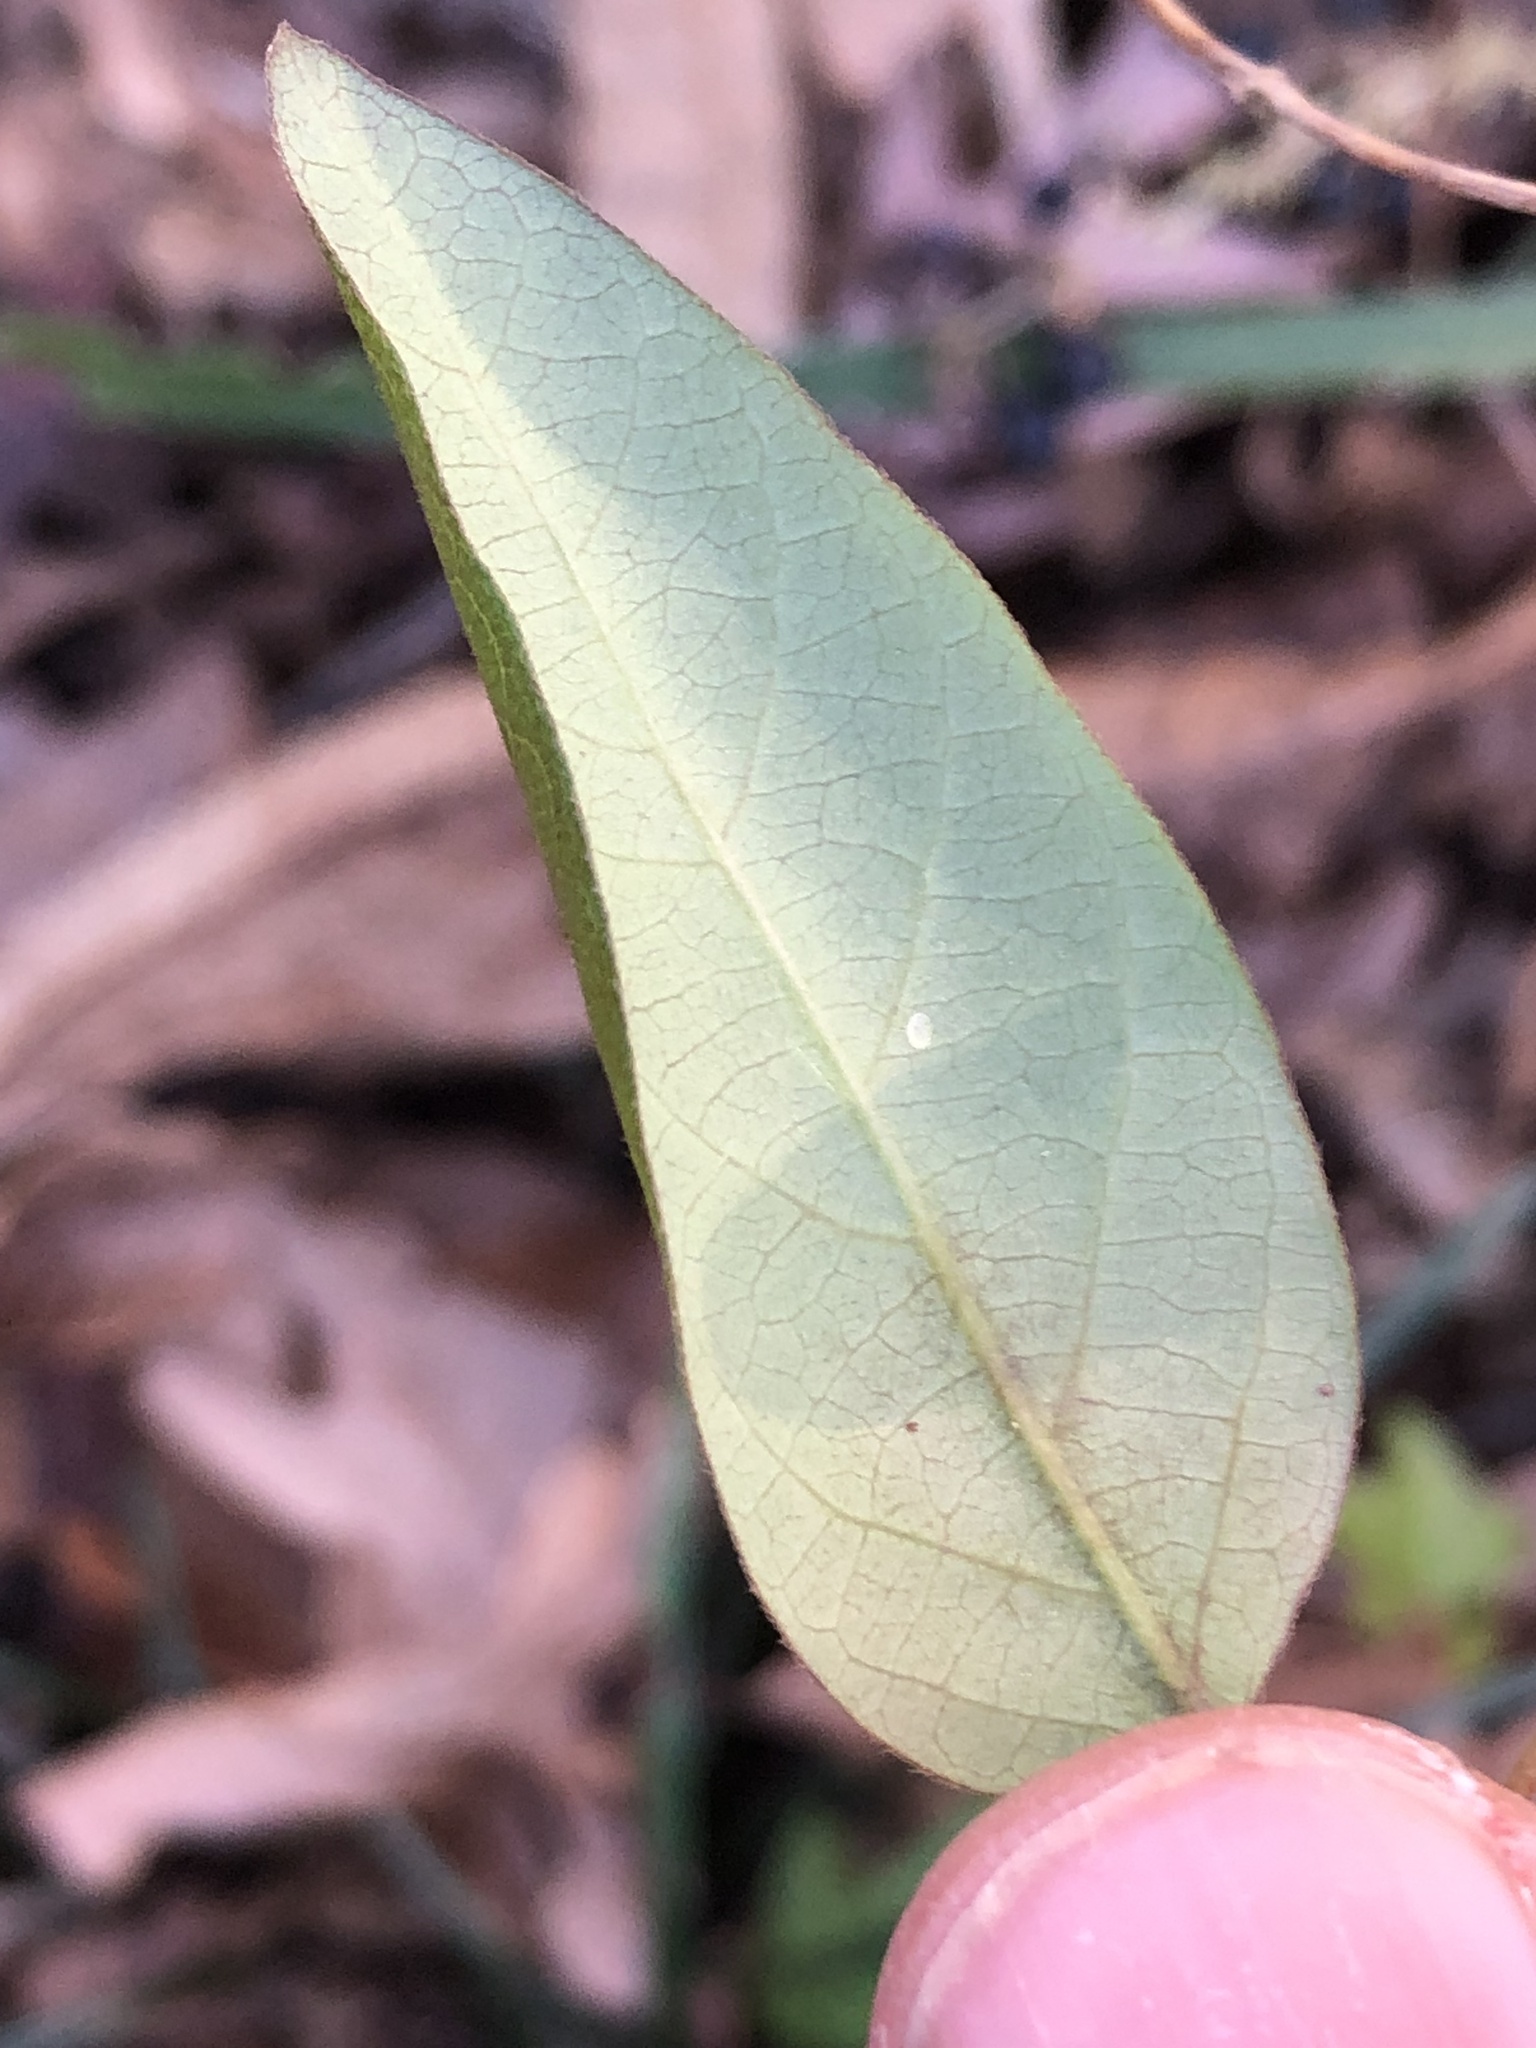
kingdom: Plantae
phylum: Tracheophyta
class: Magnoliopsida
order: Dipsacales
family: Caprifoliaceae
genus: Lonicera
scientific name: Lonicera japonica
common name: Japanese honeysuckle
